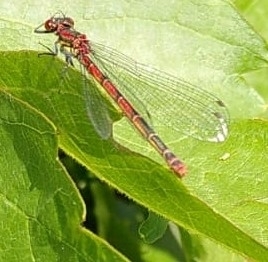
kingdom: Animalia
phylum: Arthropoda
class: Insecta
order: Odonata
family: Coenagrionidae
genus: Pyrrhosoma
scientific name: Pyrrhosoma nymphula
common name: Large red damsel
